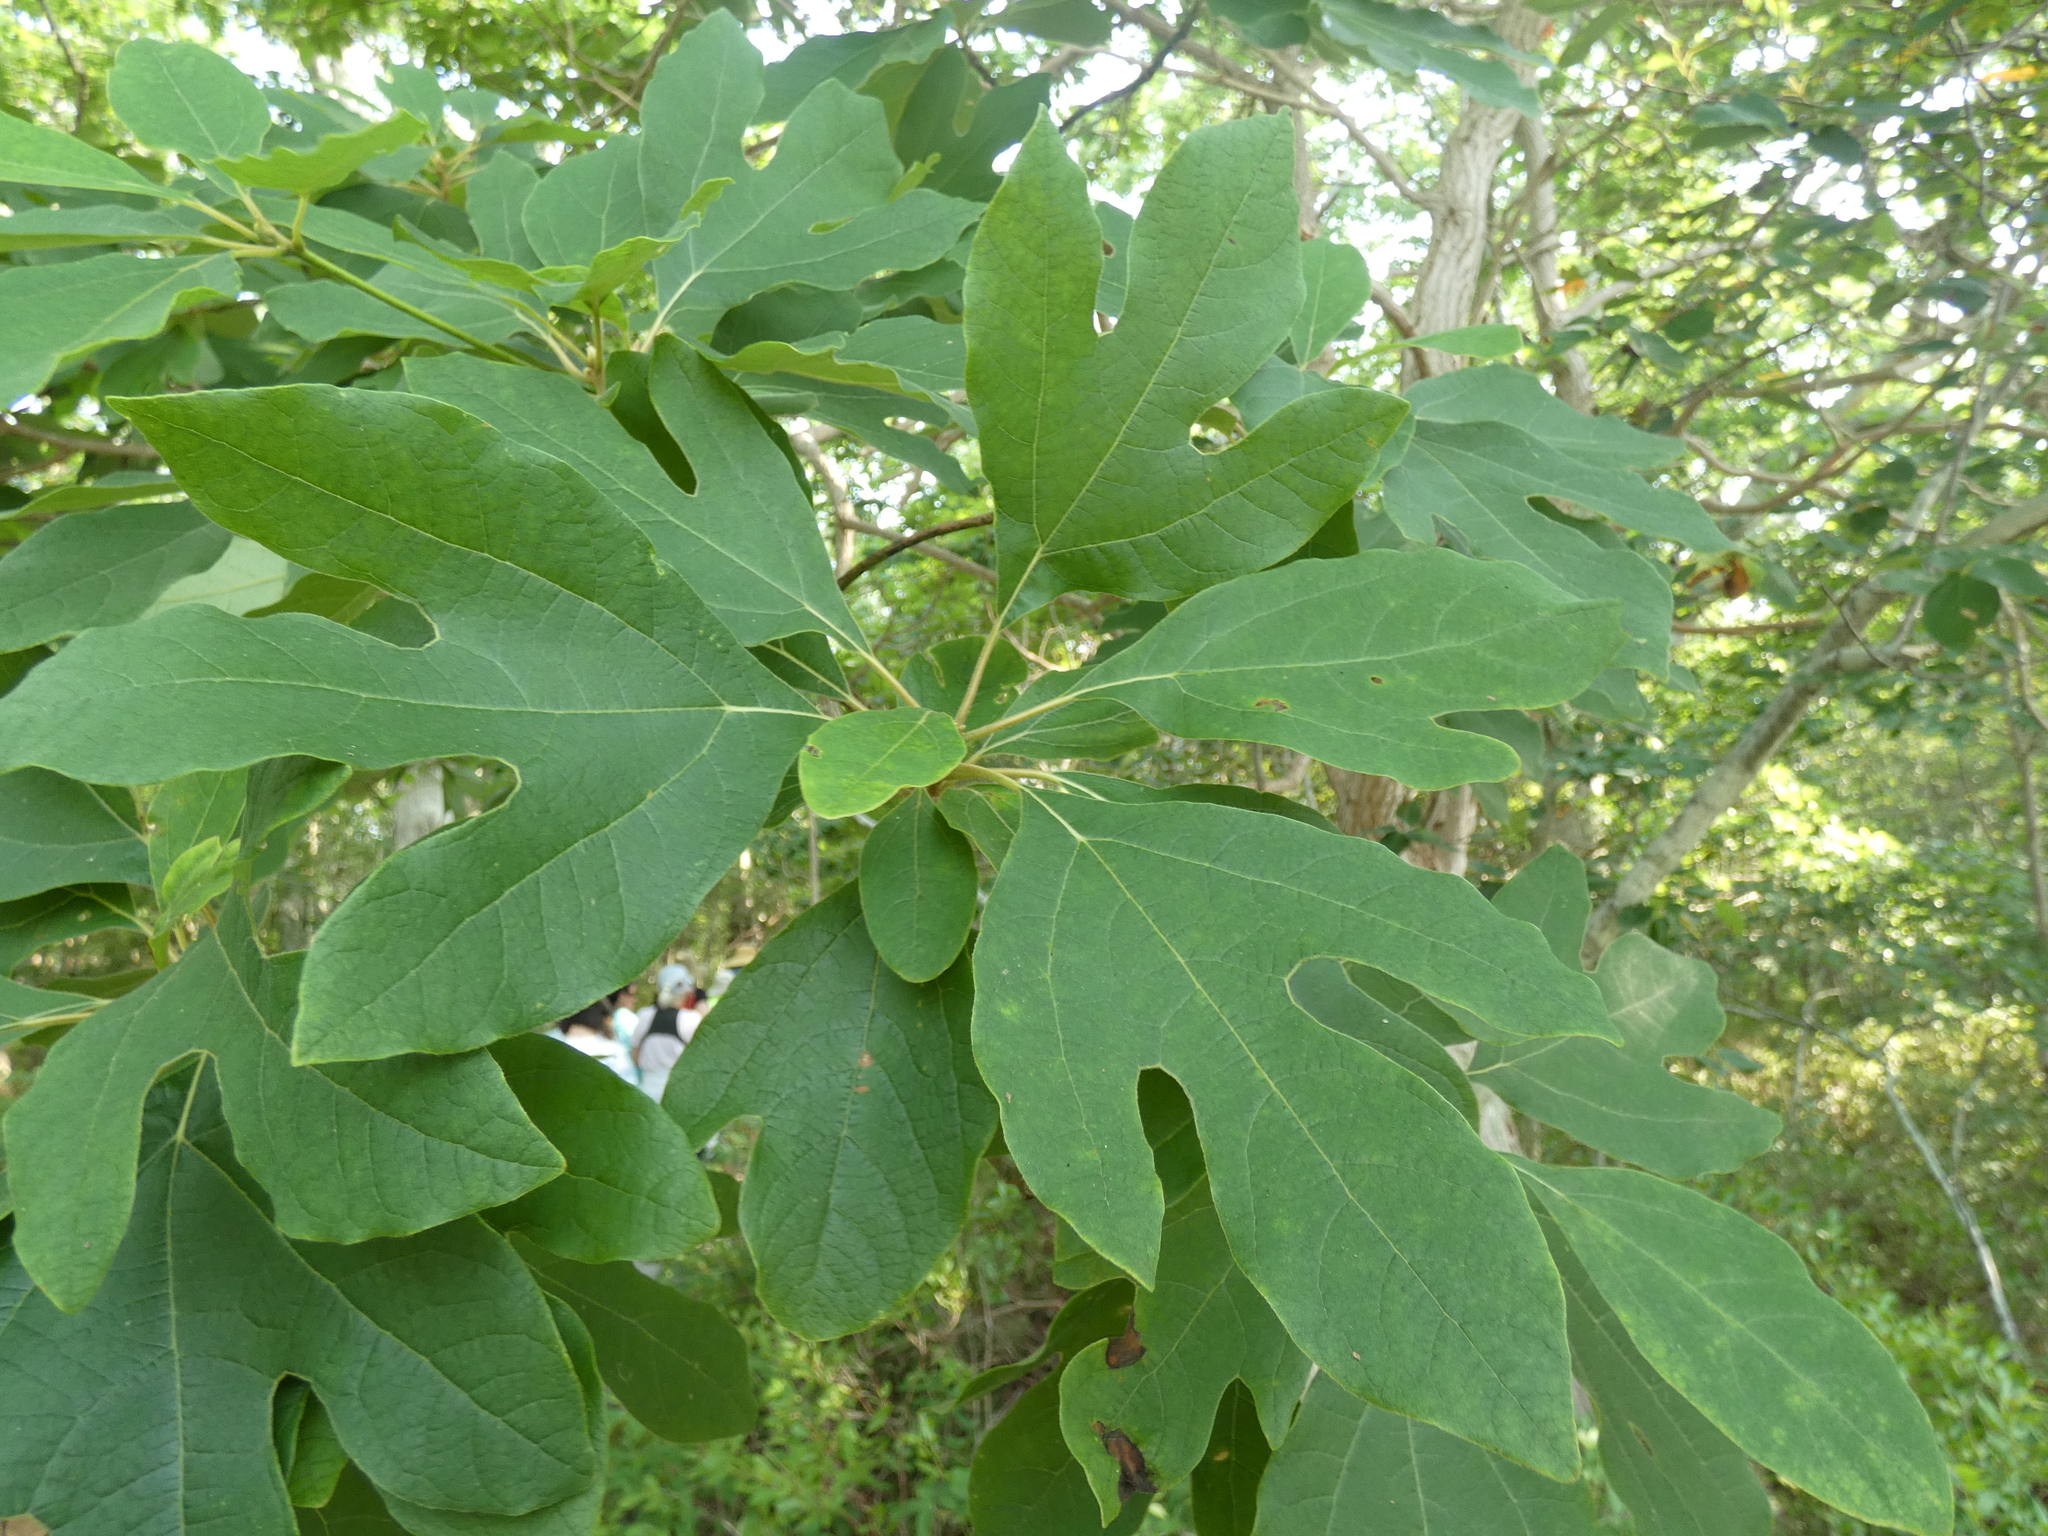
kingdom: Plantae
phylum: Tracheophyta
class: Magnoliopsida
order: Laurales
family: Lauraceae
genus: Sassafras
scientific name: Sassafras albidum
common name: Sassafras
